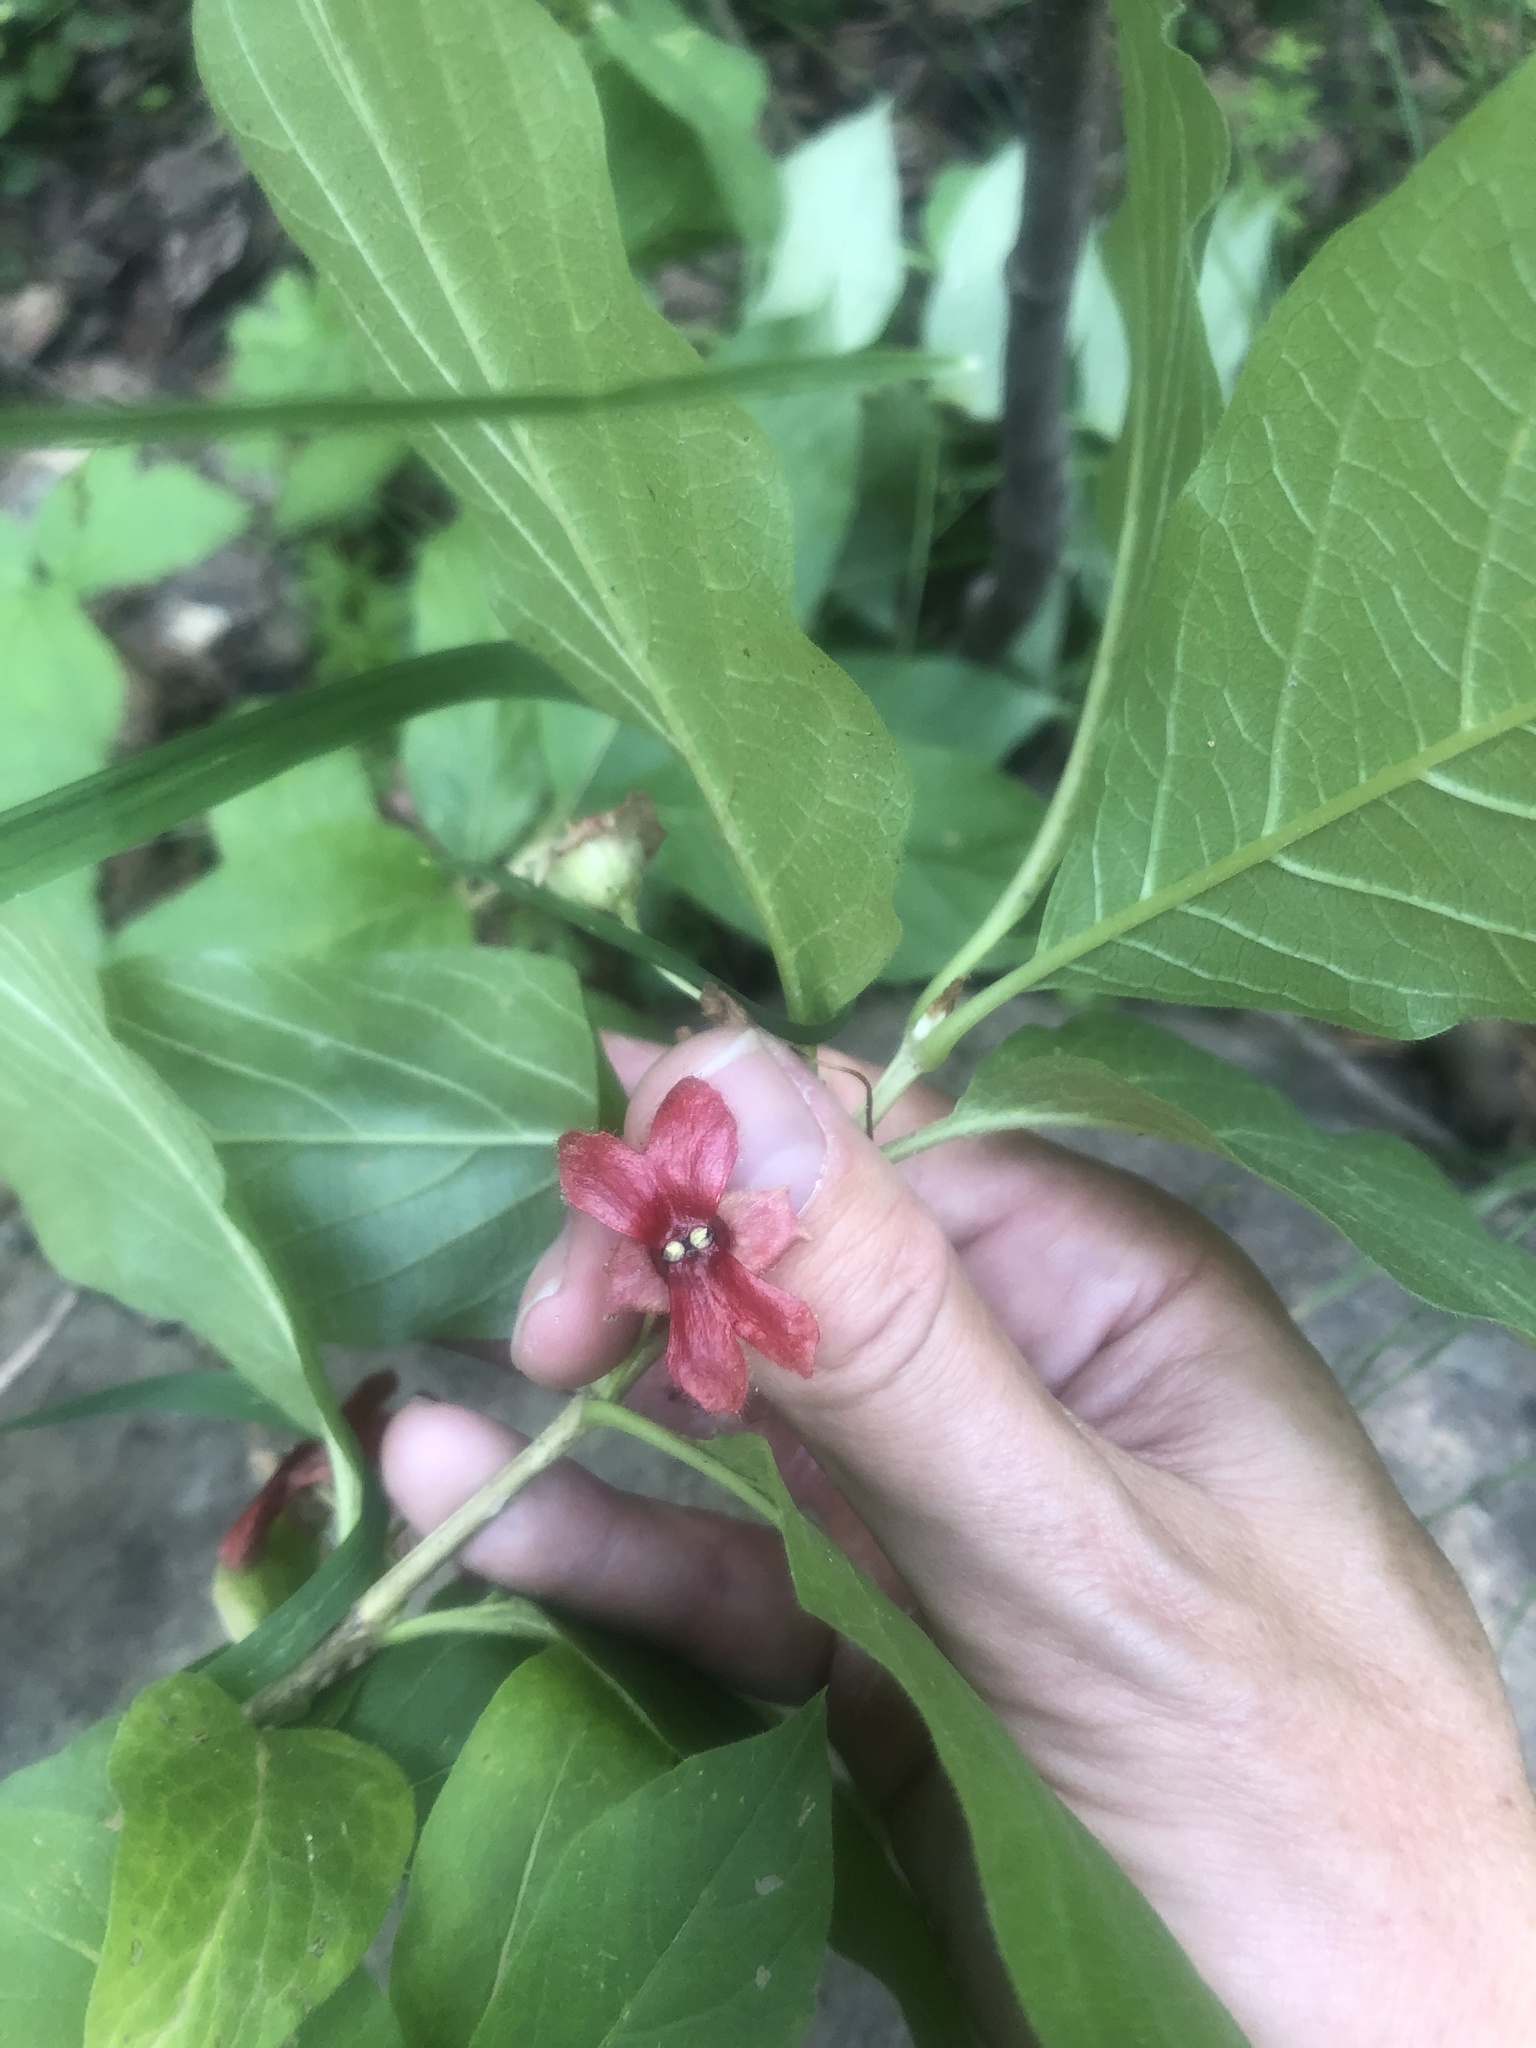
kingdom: Plantae
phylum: Tracheophyta
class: Magnoliopsida
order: Dipsacales
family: Caprifoliaceae
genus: Lonicera
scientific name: Lonicera involucrata
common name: Californian honeysuckle
